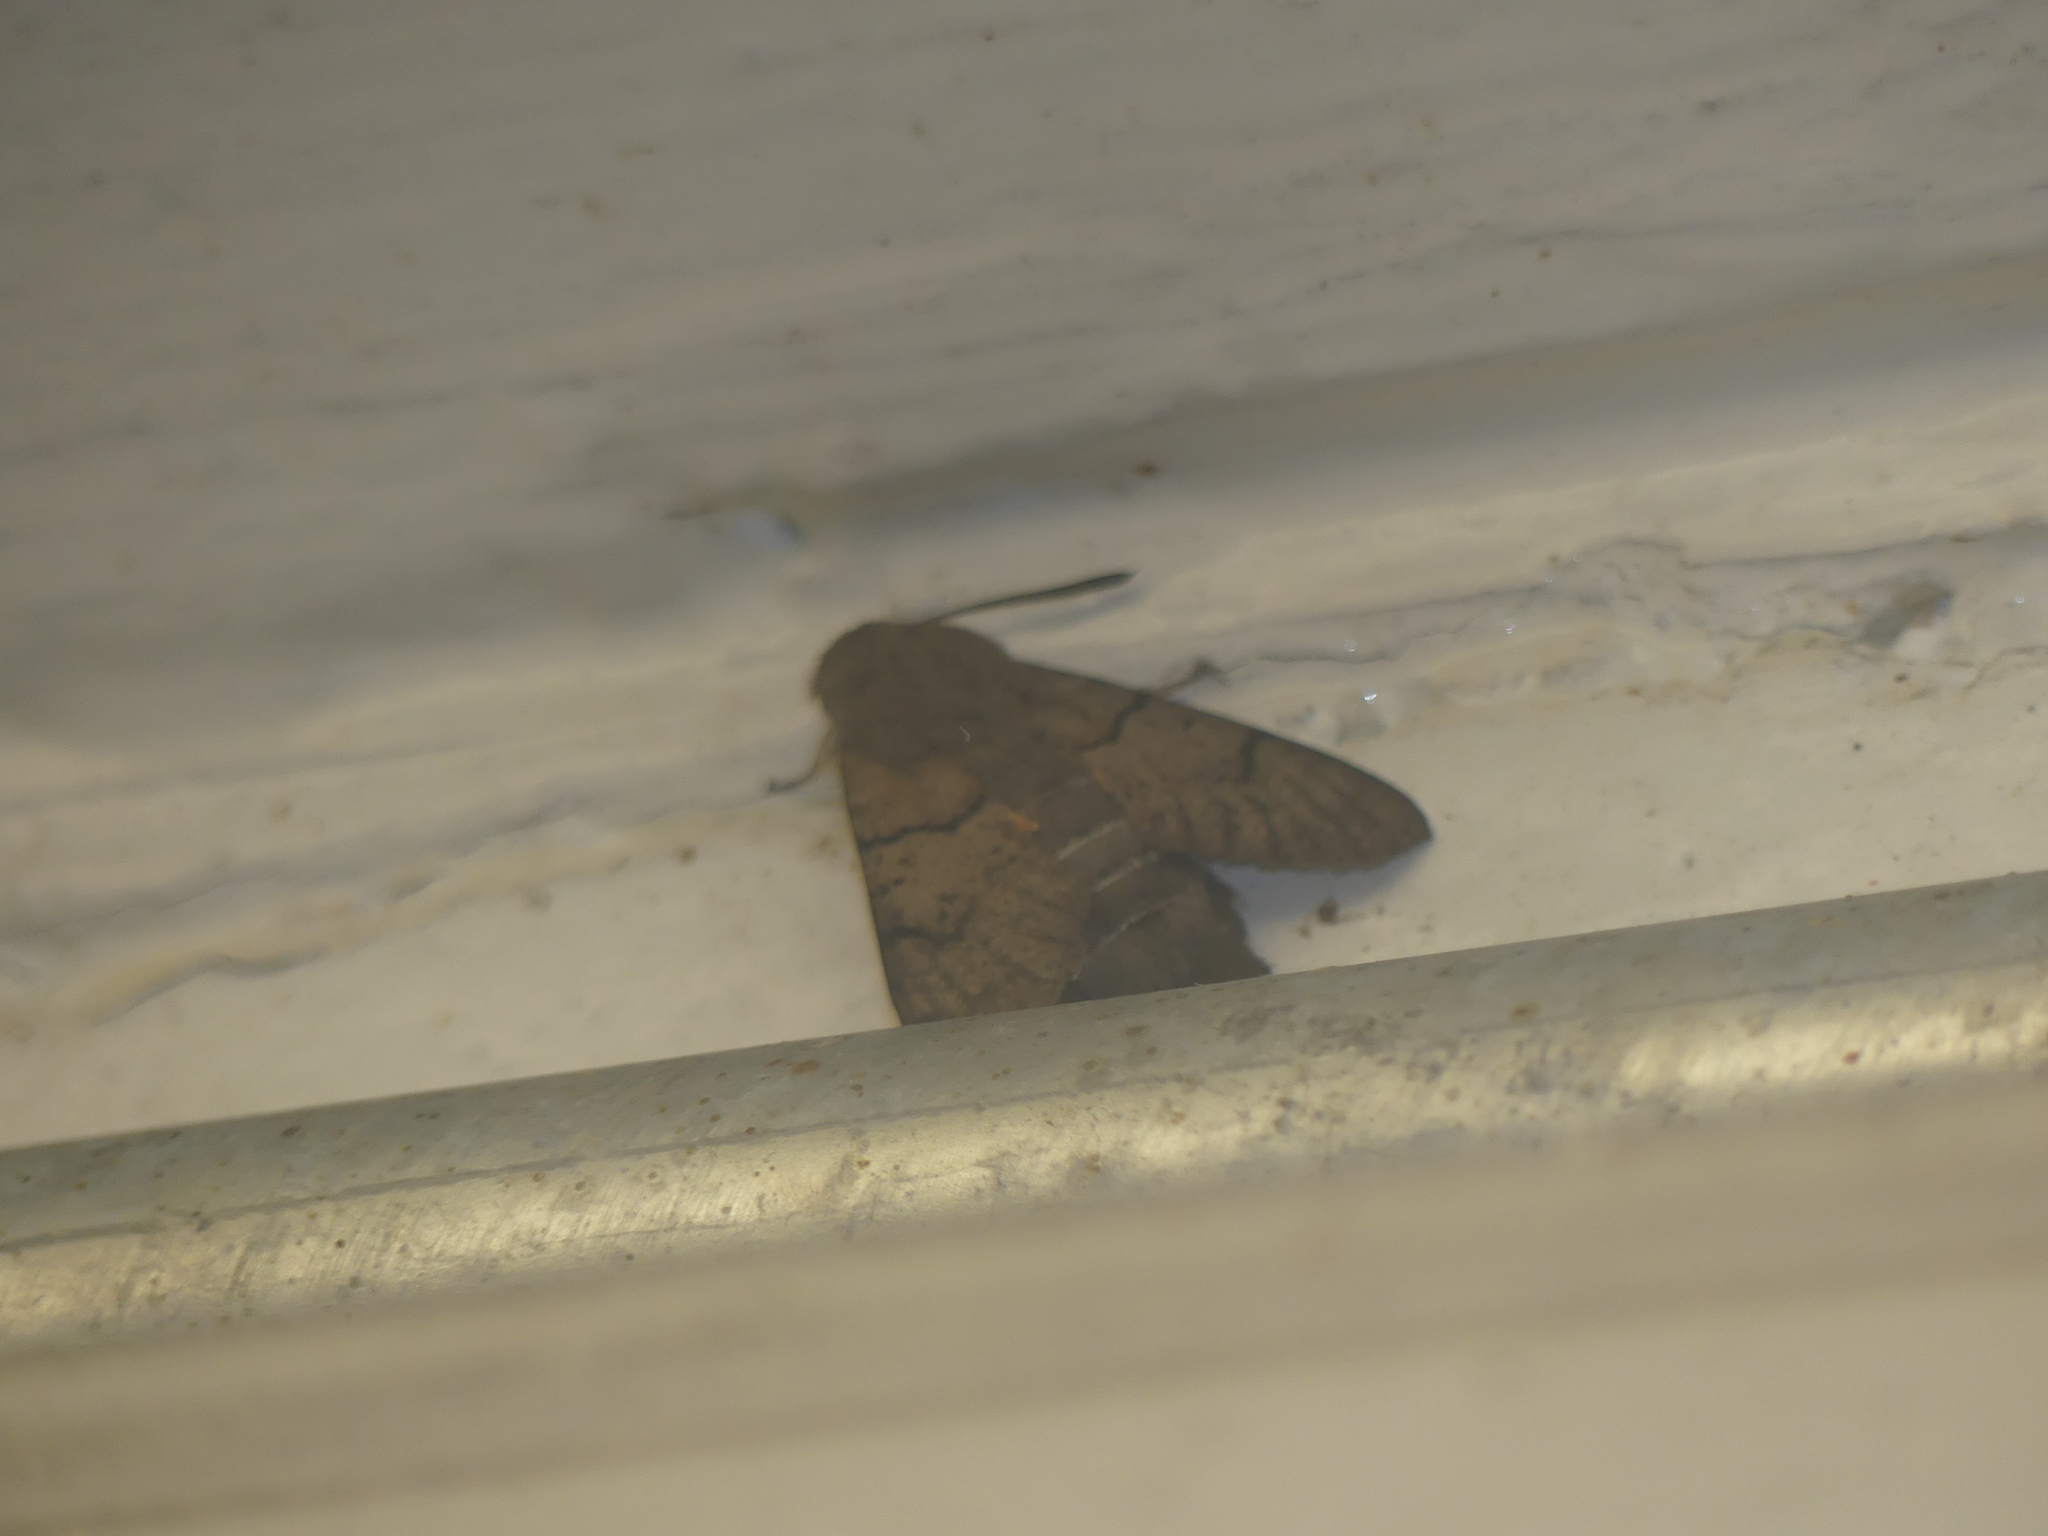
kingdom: Animalia
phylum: Arthropoda
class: Insecta
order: Lepidoptera
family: Sphingidae
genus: Macroglossum
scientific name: Macroglossum stellatarum
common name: Humming-bird hawk-moth
